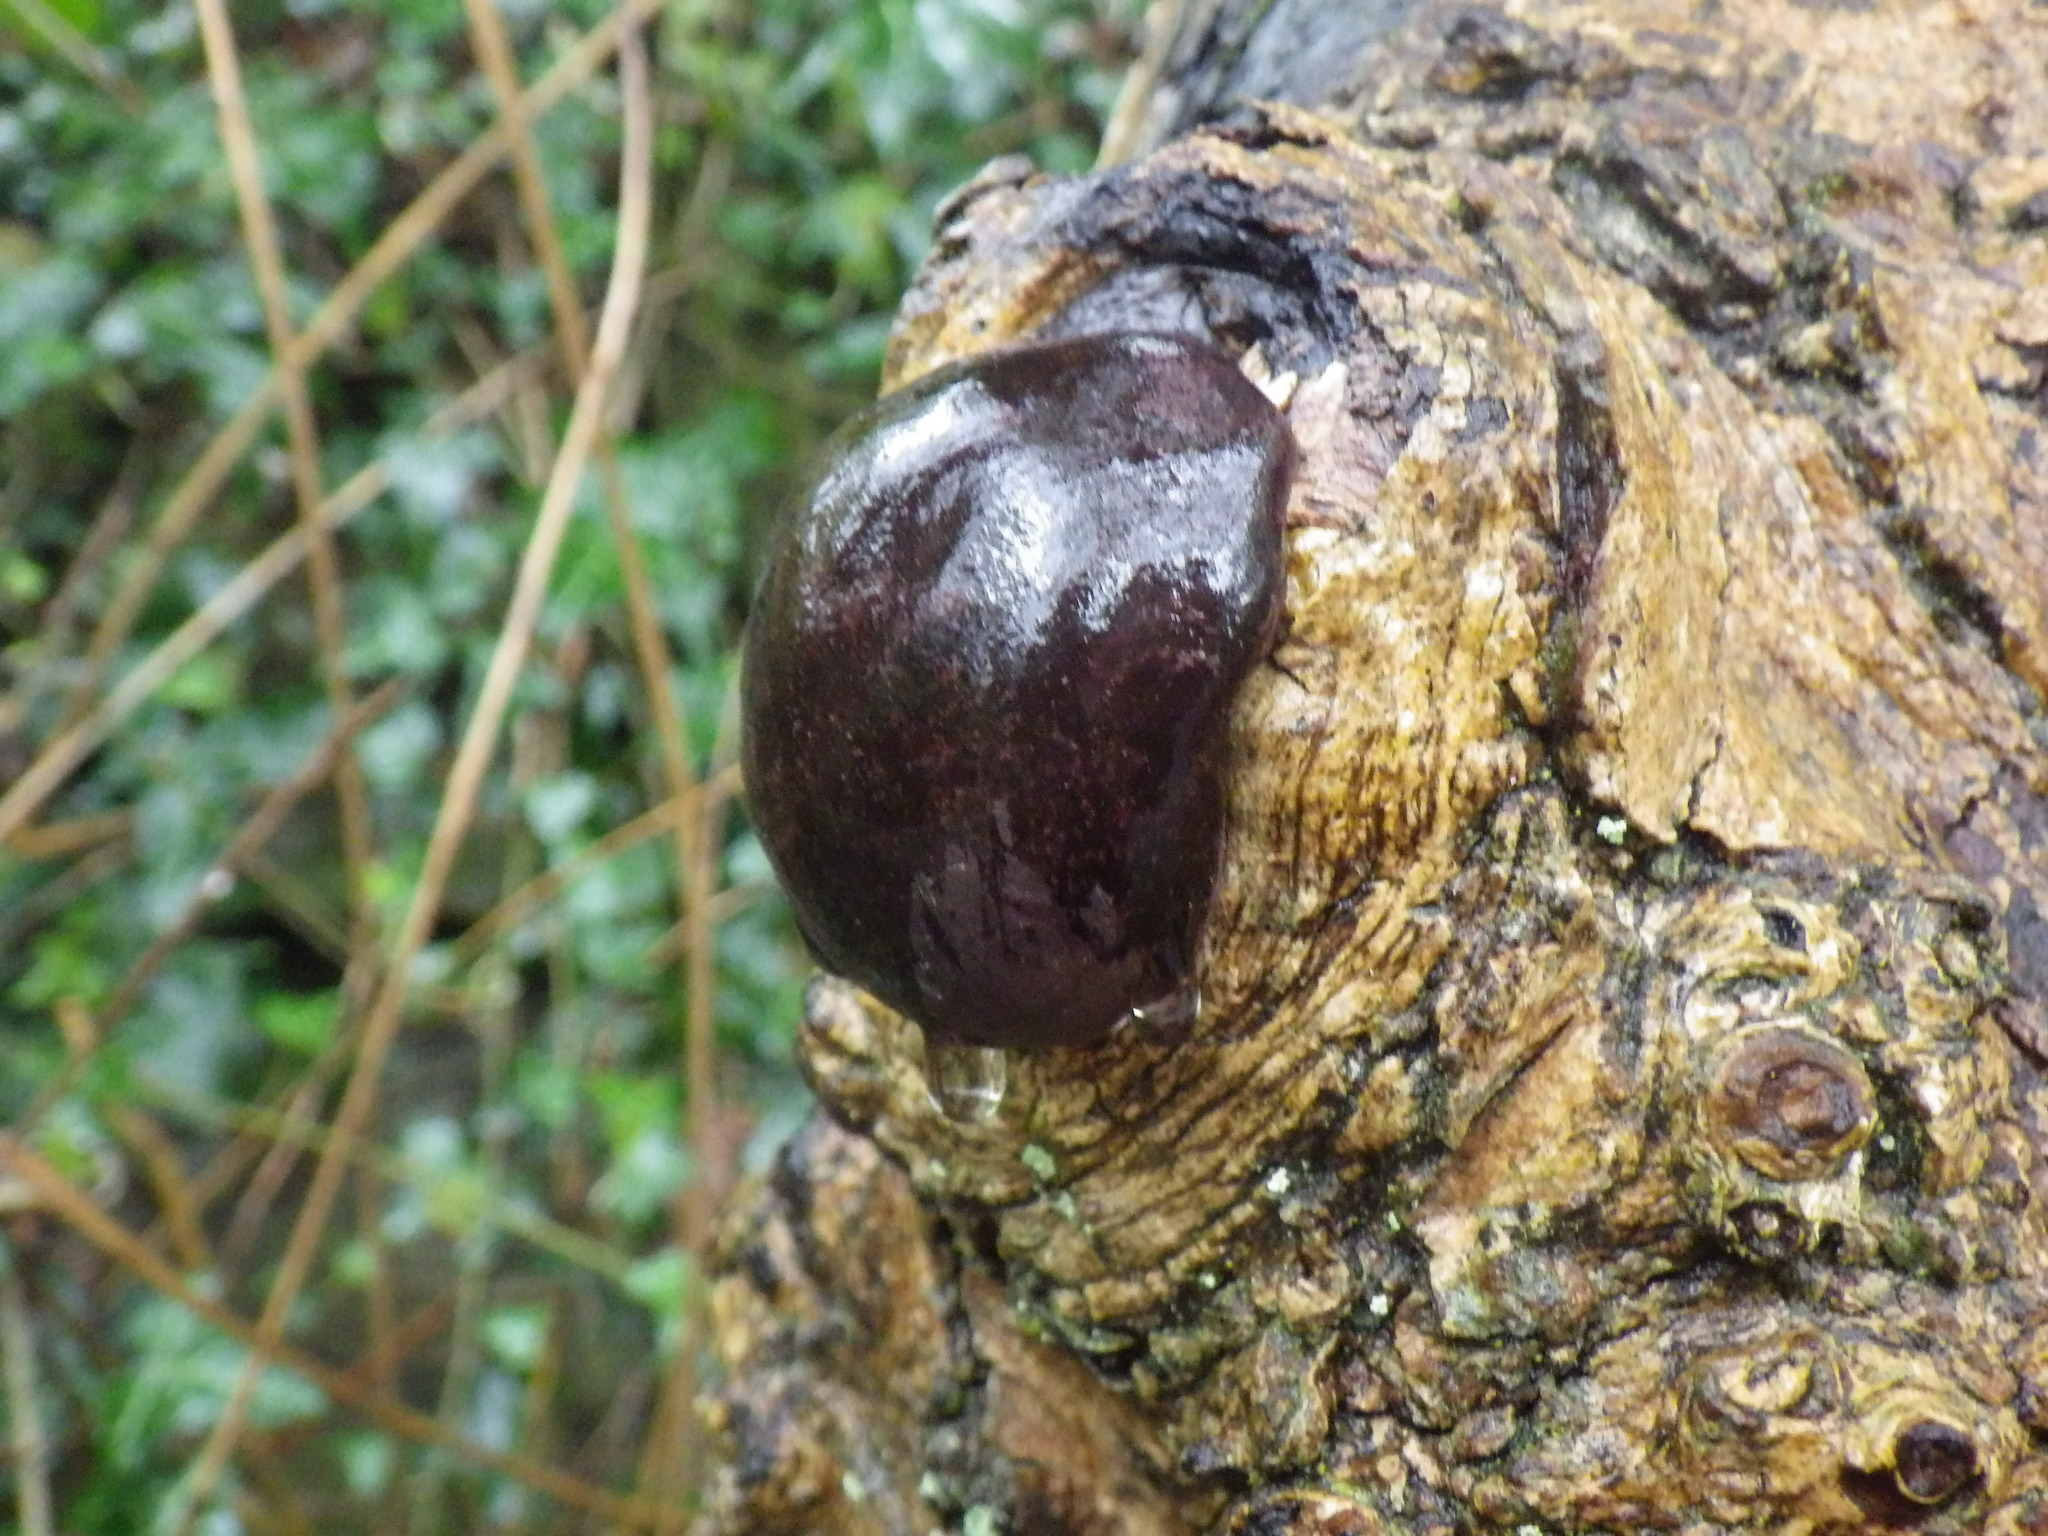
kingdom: Fungi
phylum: Ascomycota
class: Sordariomycetes
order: Xylariales
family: Hypoxylaceae
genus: Daldinia
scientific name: Daldinia concentrica
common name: Cramp balls
